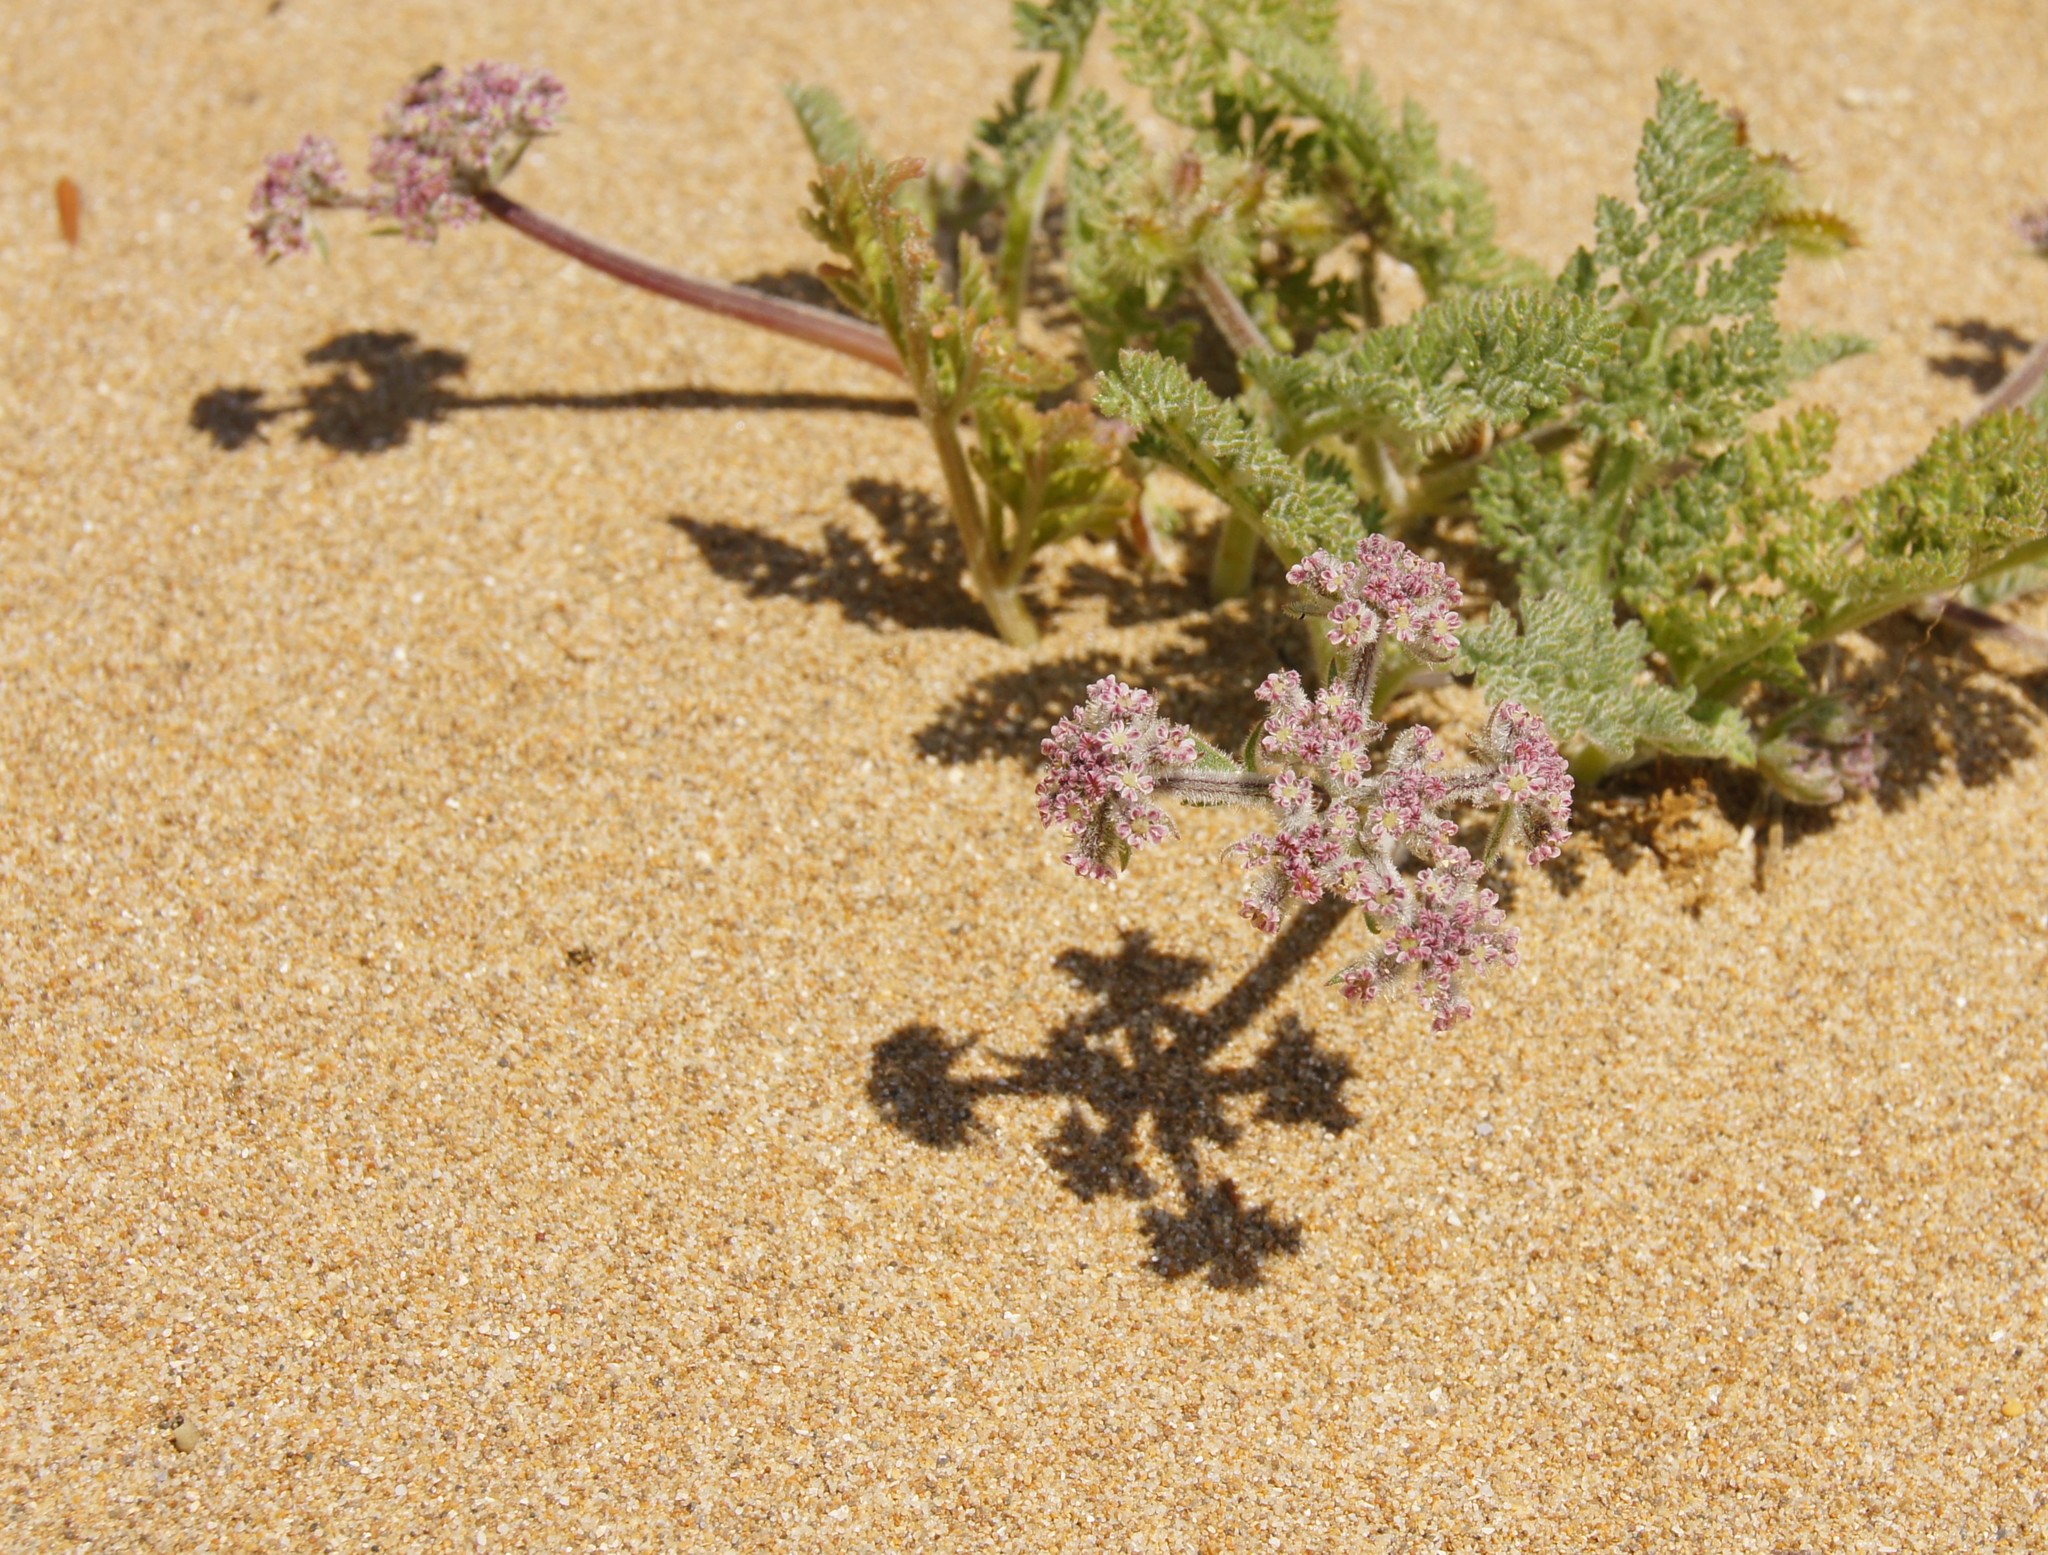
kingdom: Plantae
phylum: Tracheophyta
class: Magnoliopsida
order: Apiales
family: Apiaceae
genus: Daucus
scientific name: Daucus pumilus
